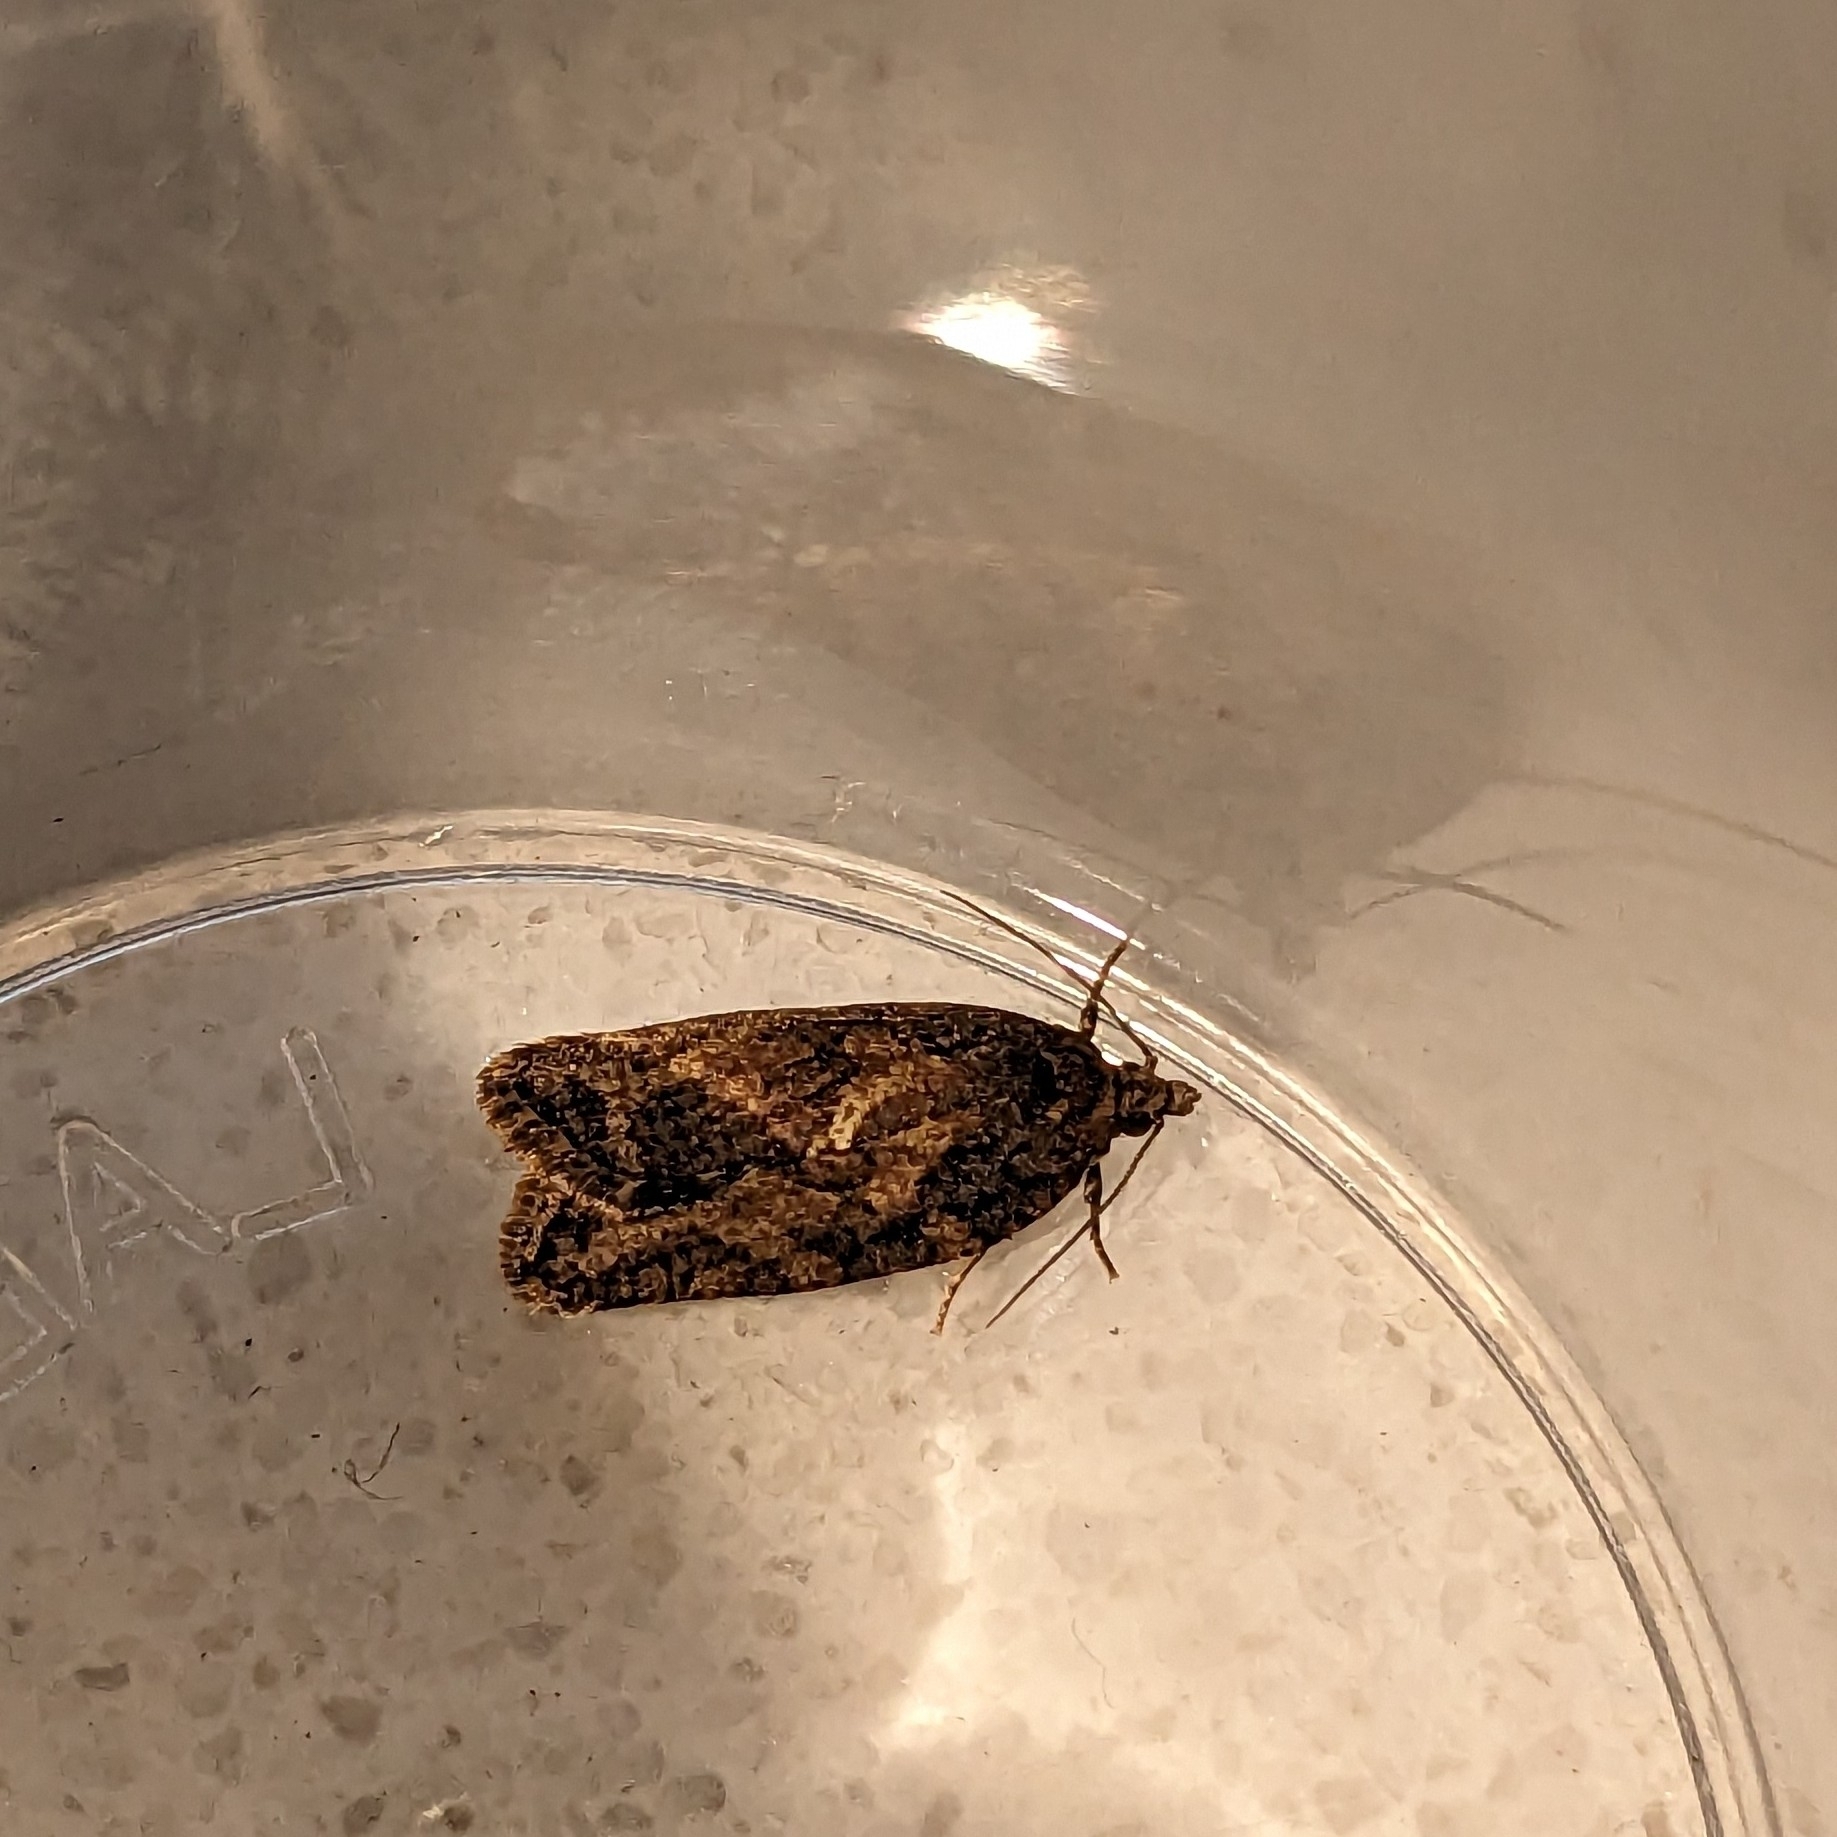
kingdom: Animalia
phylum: Arthropoda
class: Insecta
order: Lepidoptera
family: Tortricidae
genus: Capua
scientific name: Capua intractana
